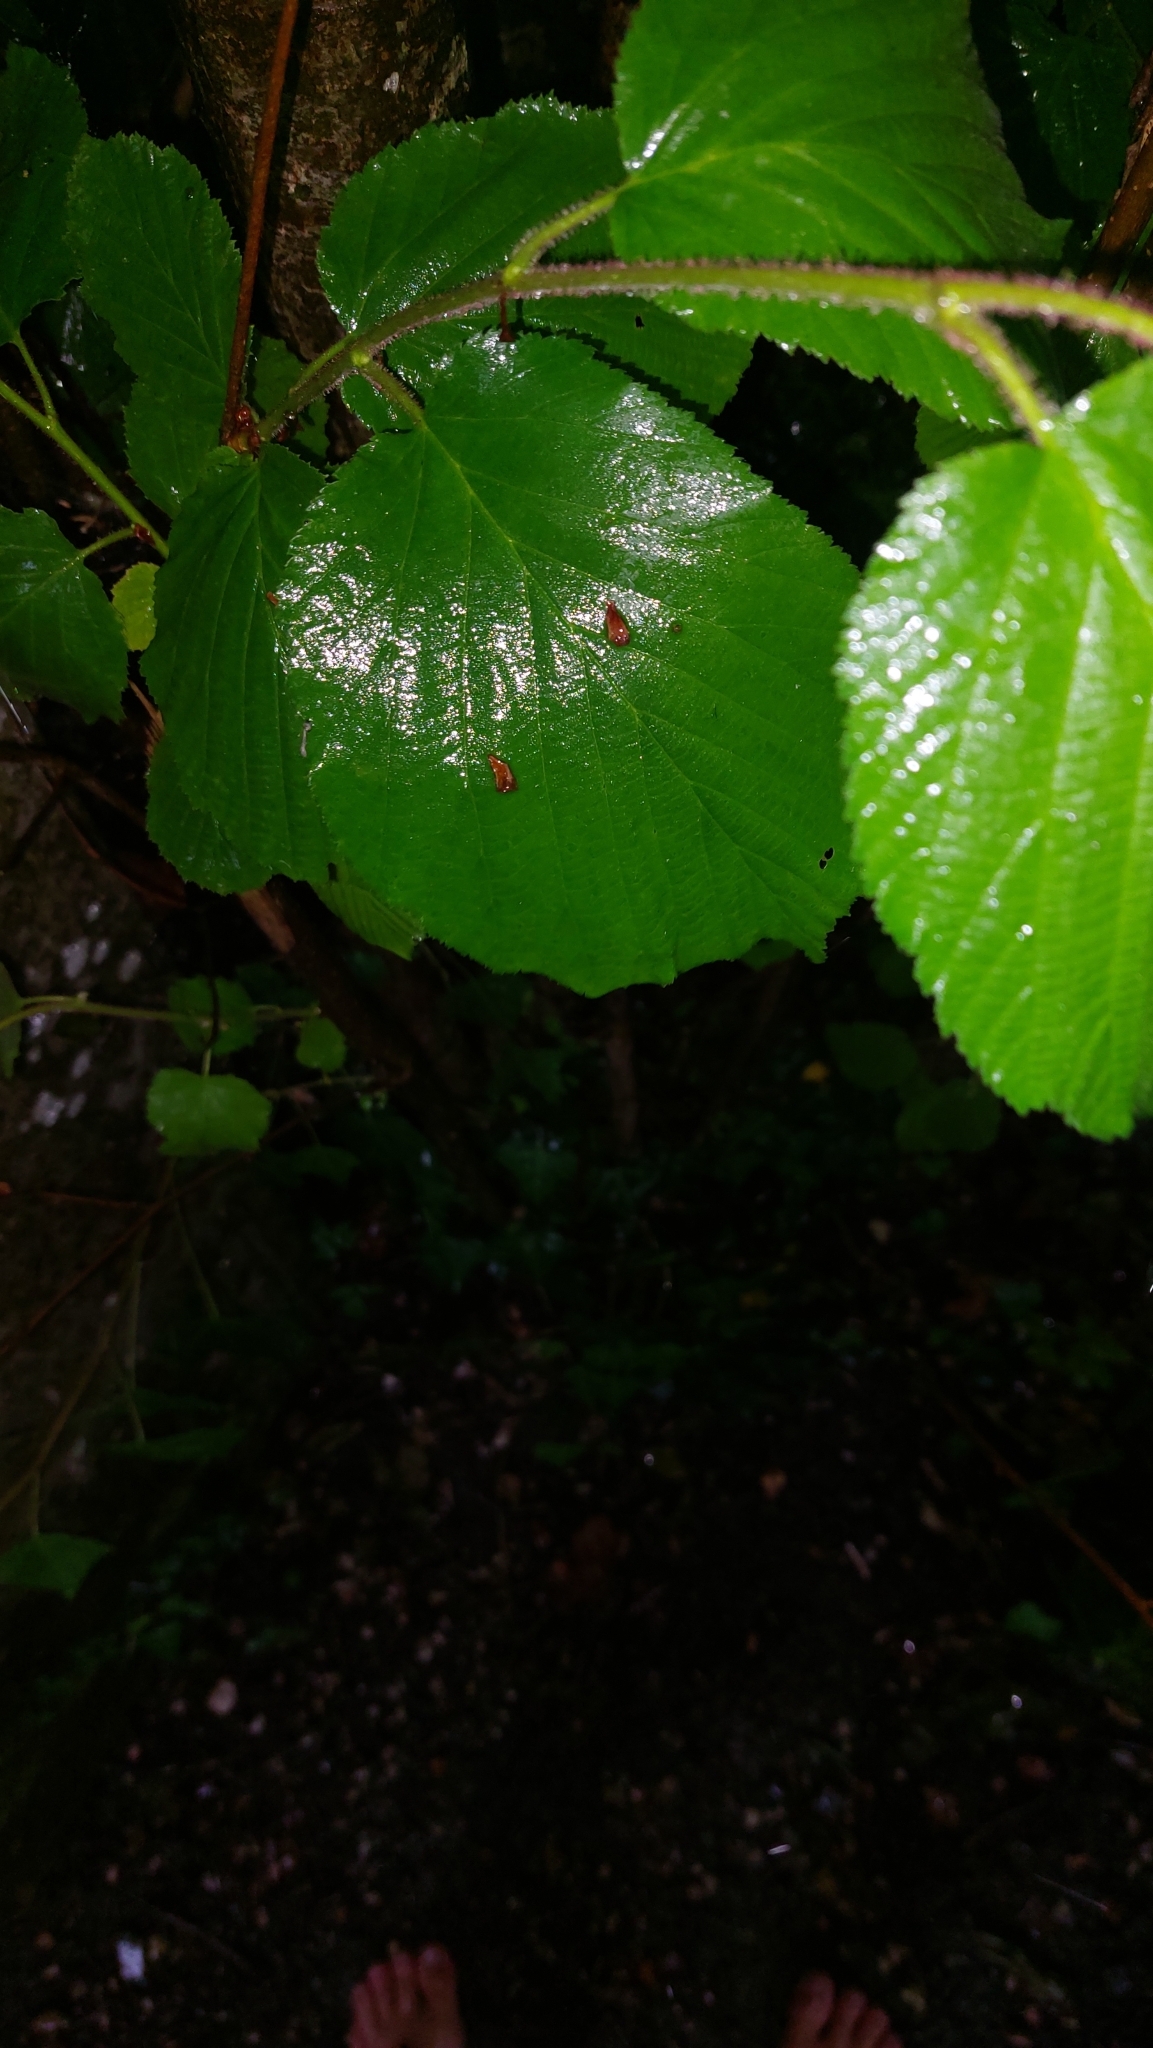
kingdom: Plantae
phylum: Tracheophyta
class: Magnoliopsida
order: Fagales
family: Betulaceae
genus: Corylus
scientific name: Corylus avellana
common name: European hazel
